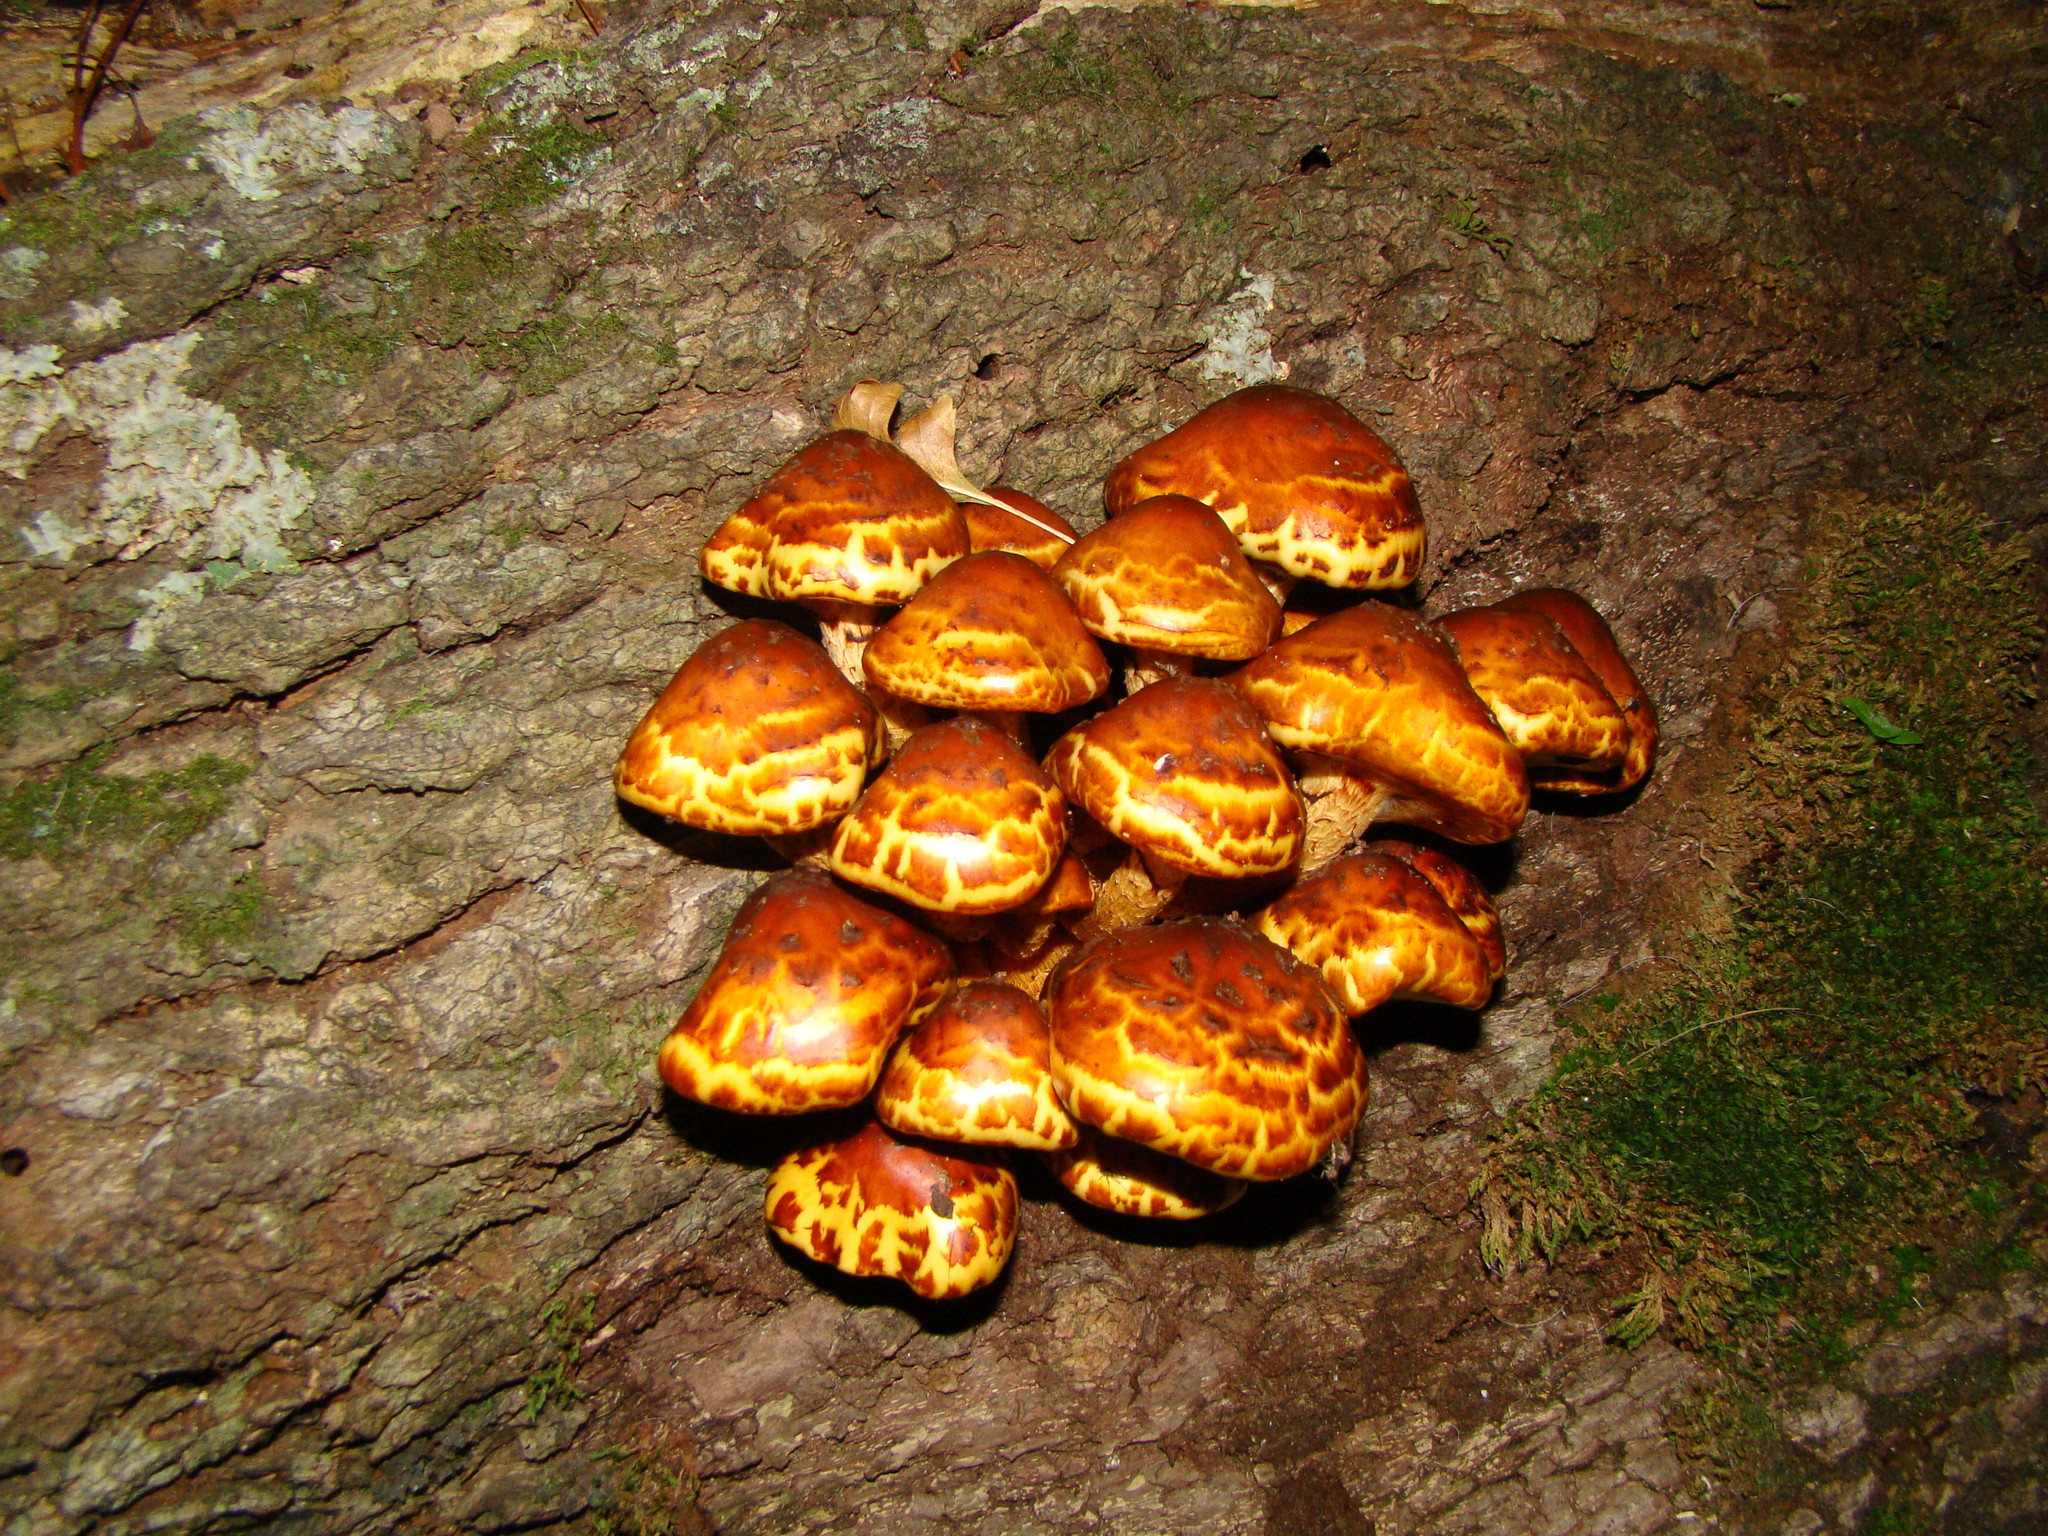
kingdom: Fungi
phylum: Basidiomycota
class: Agaricomycetes
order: Agaricales
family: Strophariaceae
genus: Pholiota
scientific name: Pholiota glutinosa
